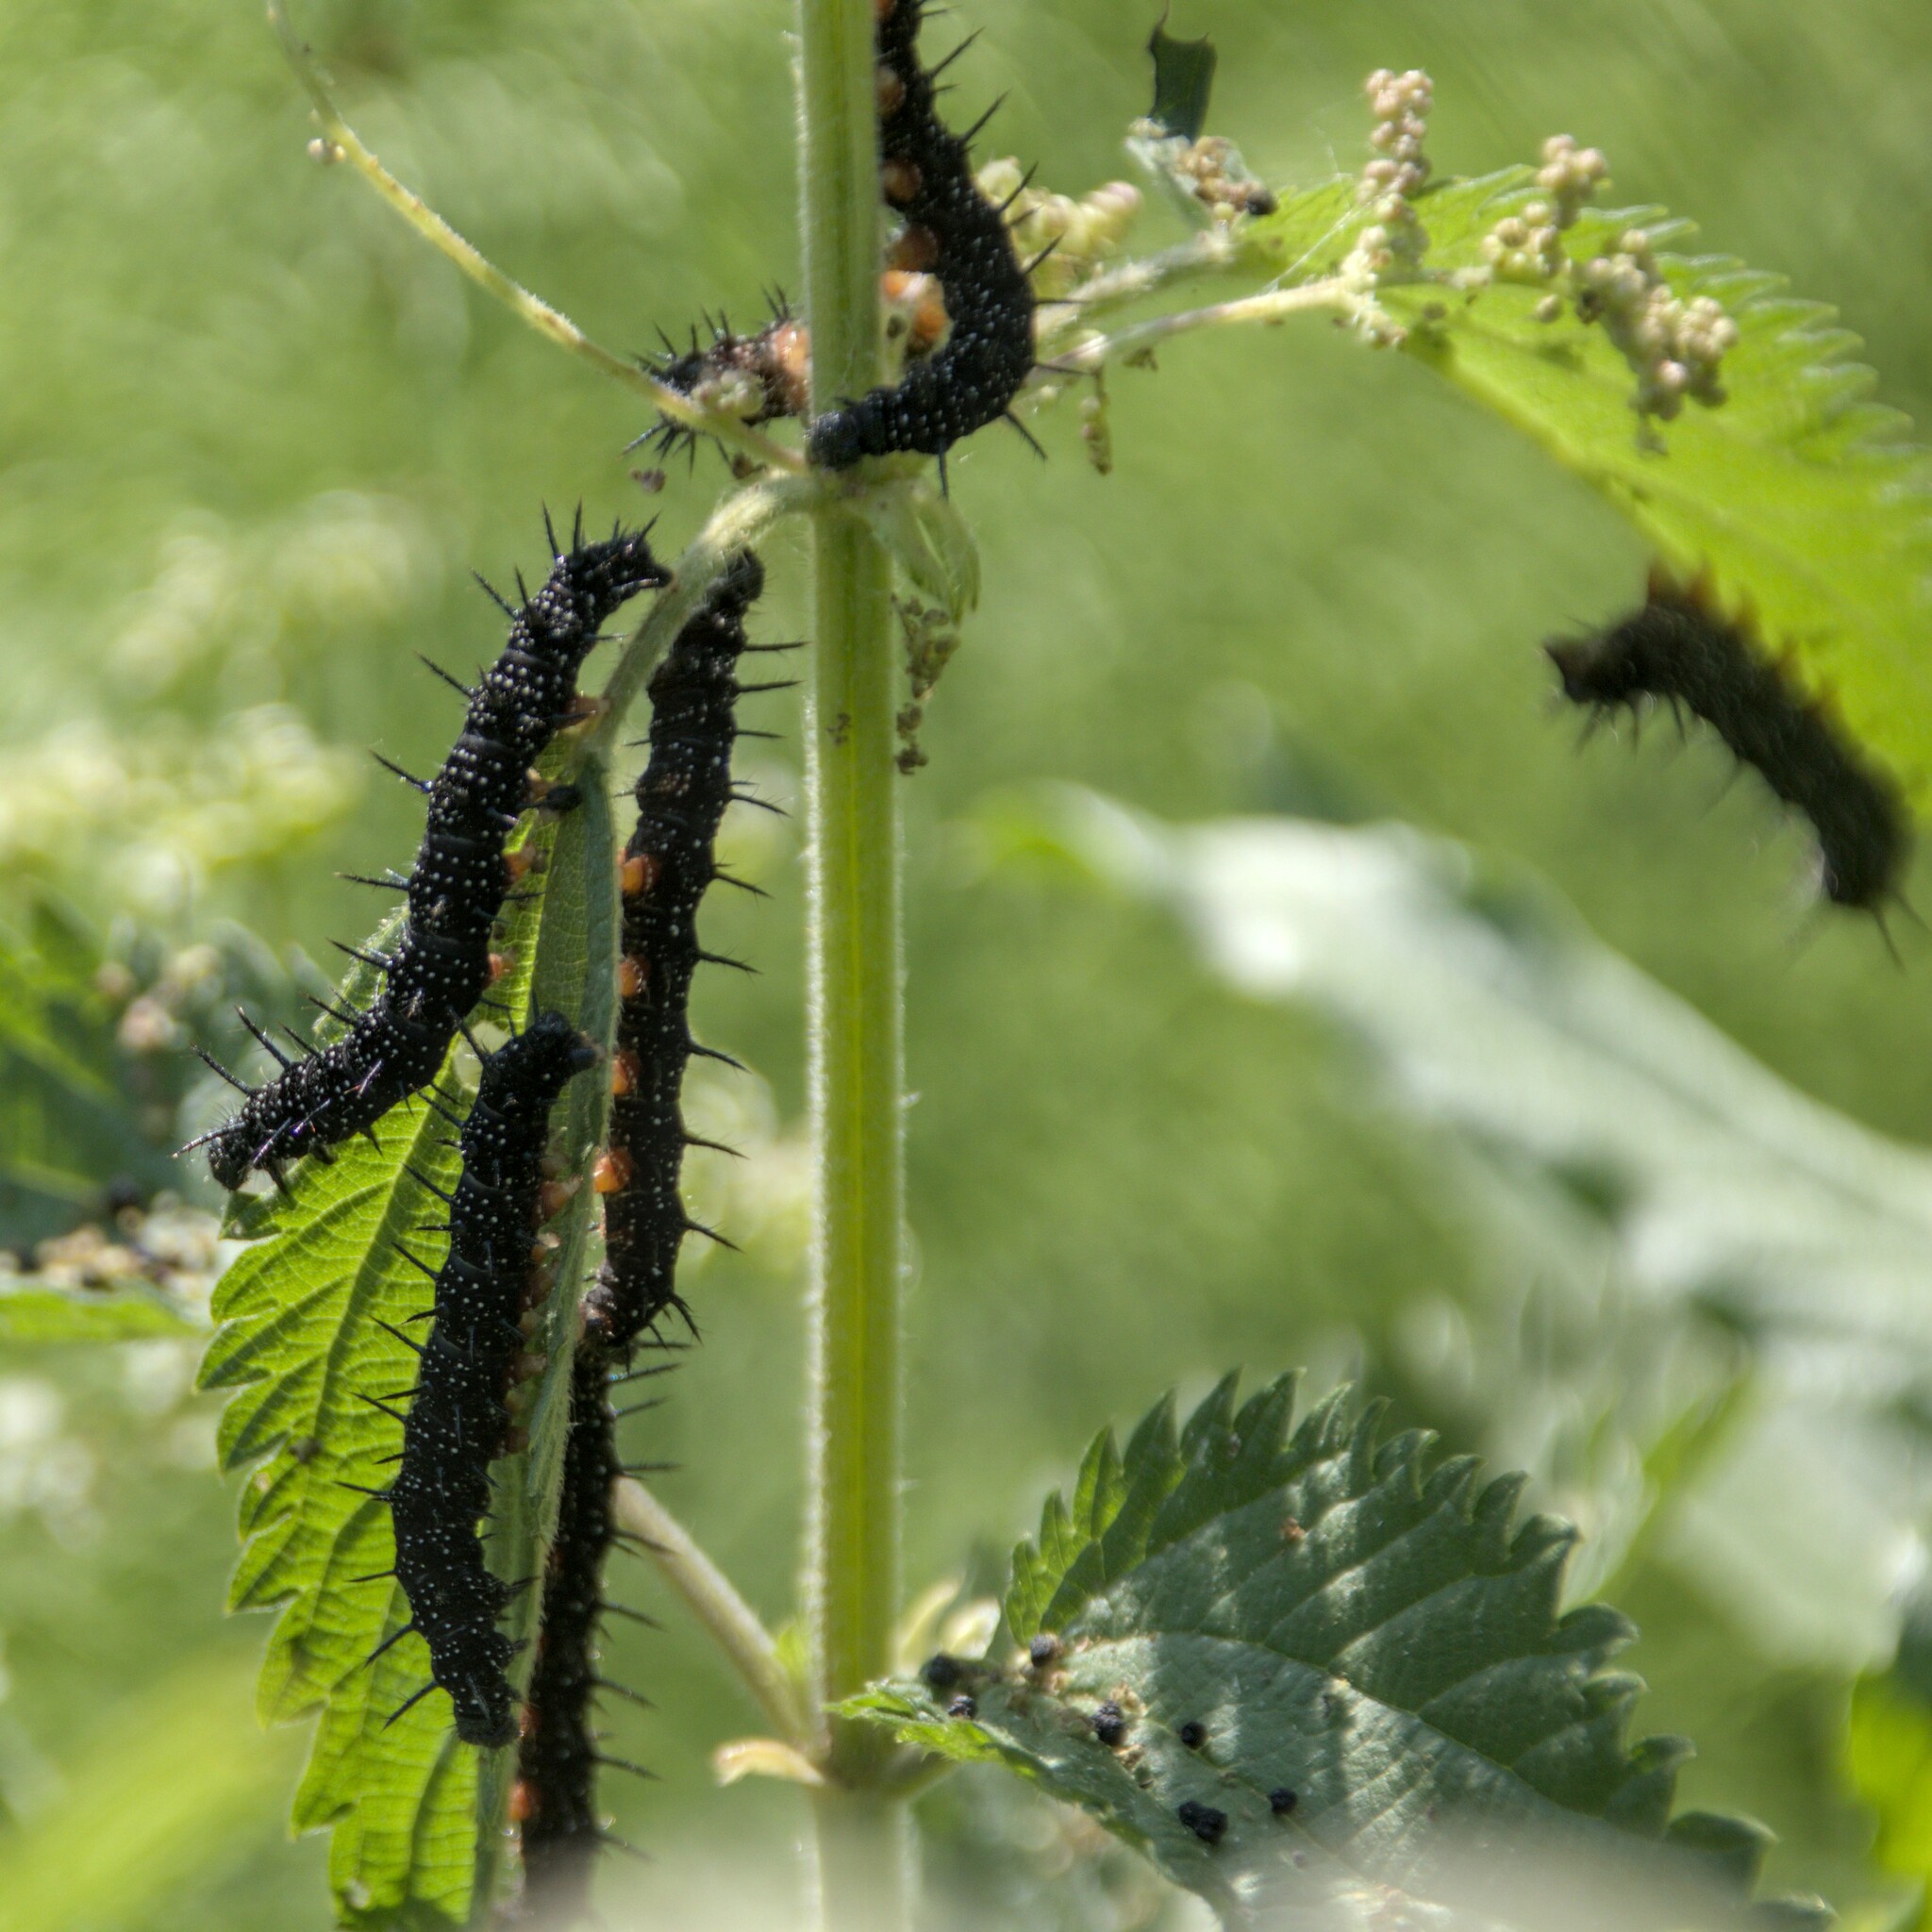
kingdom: Animalia
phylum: Arthropoda
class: Insecta
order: Lepidoptera
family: Nymphalidae
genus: Aglais
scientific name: Aglais io
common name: Peacock
